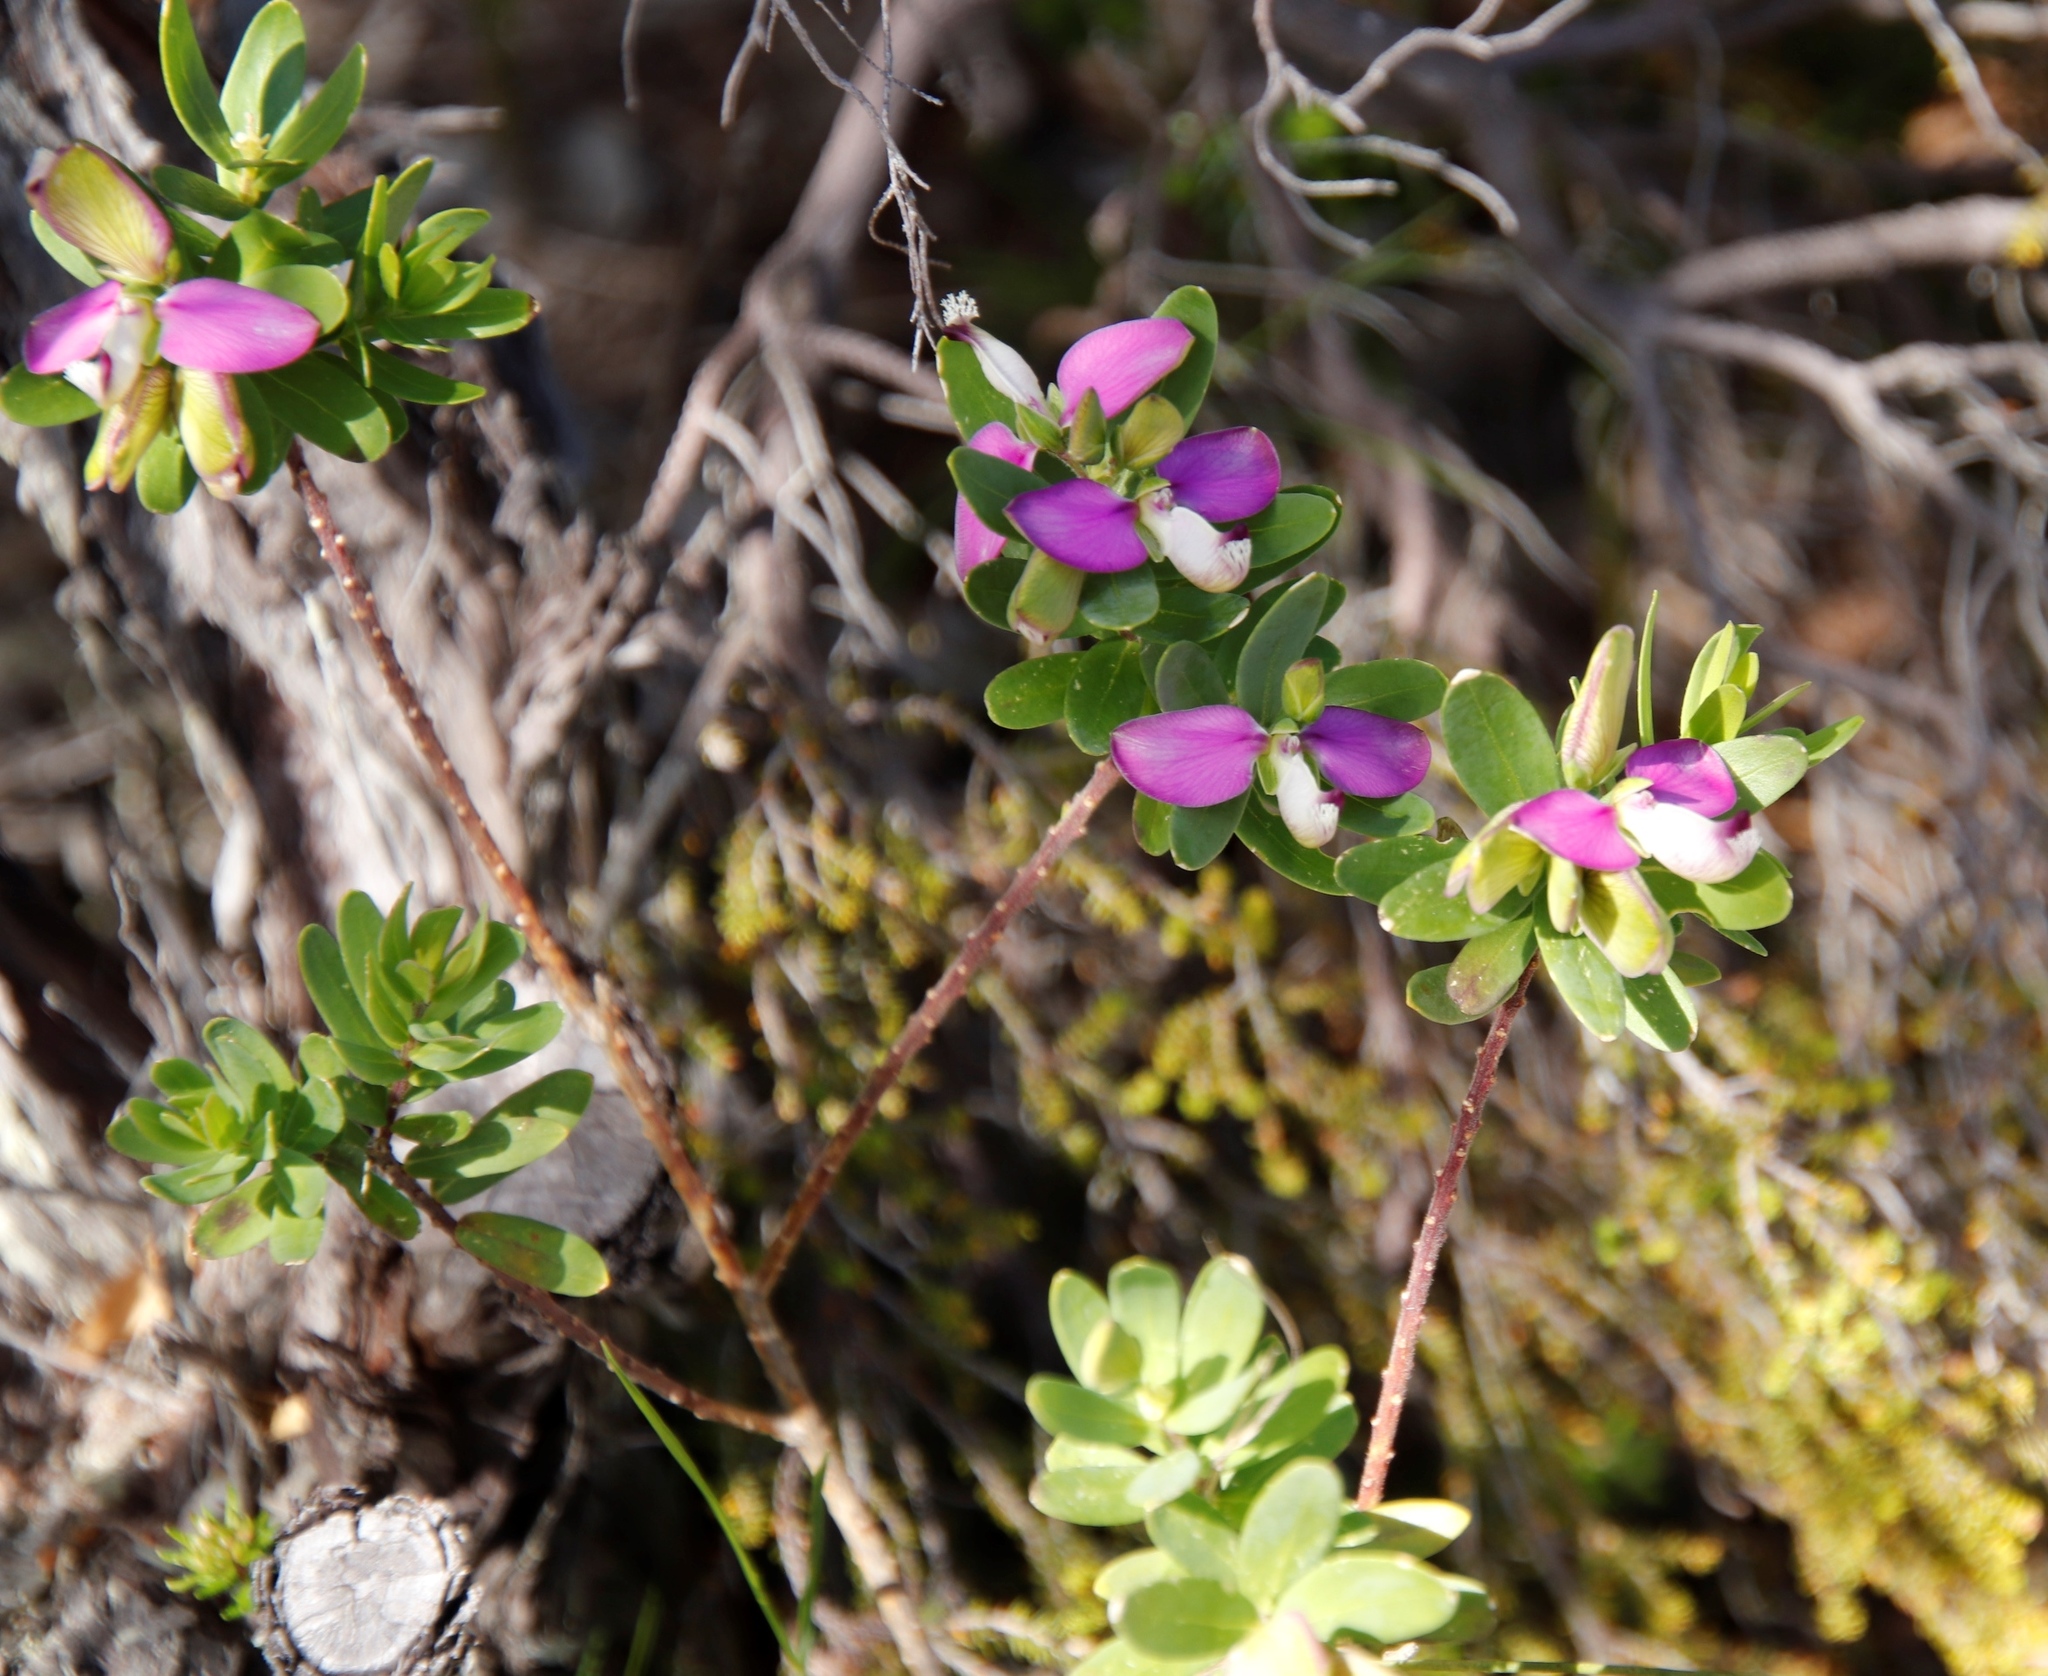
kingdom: Plantae
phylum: Tracheophyta
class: Magnoliopsida
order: Fabales
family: Polygalaceae
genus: Polygala
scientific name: Polygala myrtifolia
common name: Myrtle-leaf milkwort
